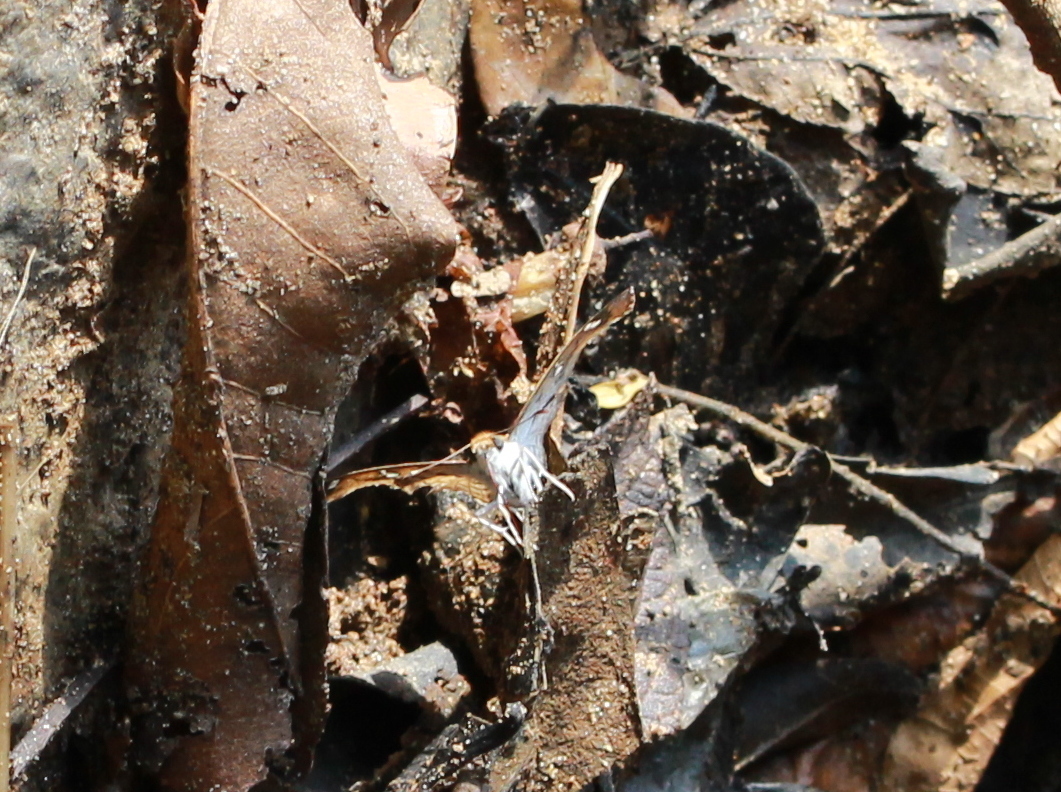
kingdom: Animalia
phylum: Arthropoda
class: Insecta
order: Lepidoptera
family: Hesperiidae
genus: Caprona
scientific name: Caprona ransonnettii
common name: Golden angle
